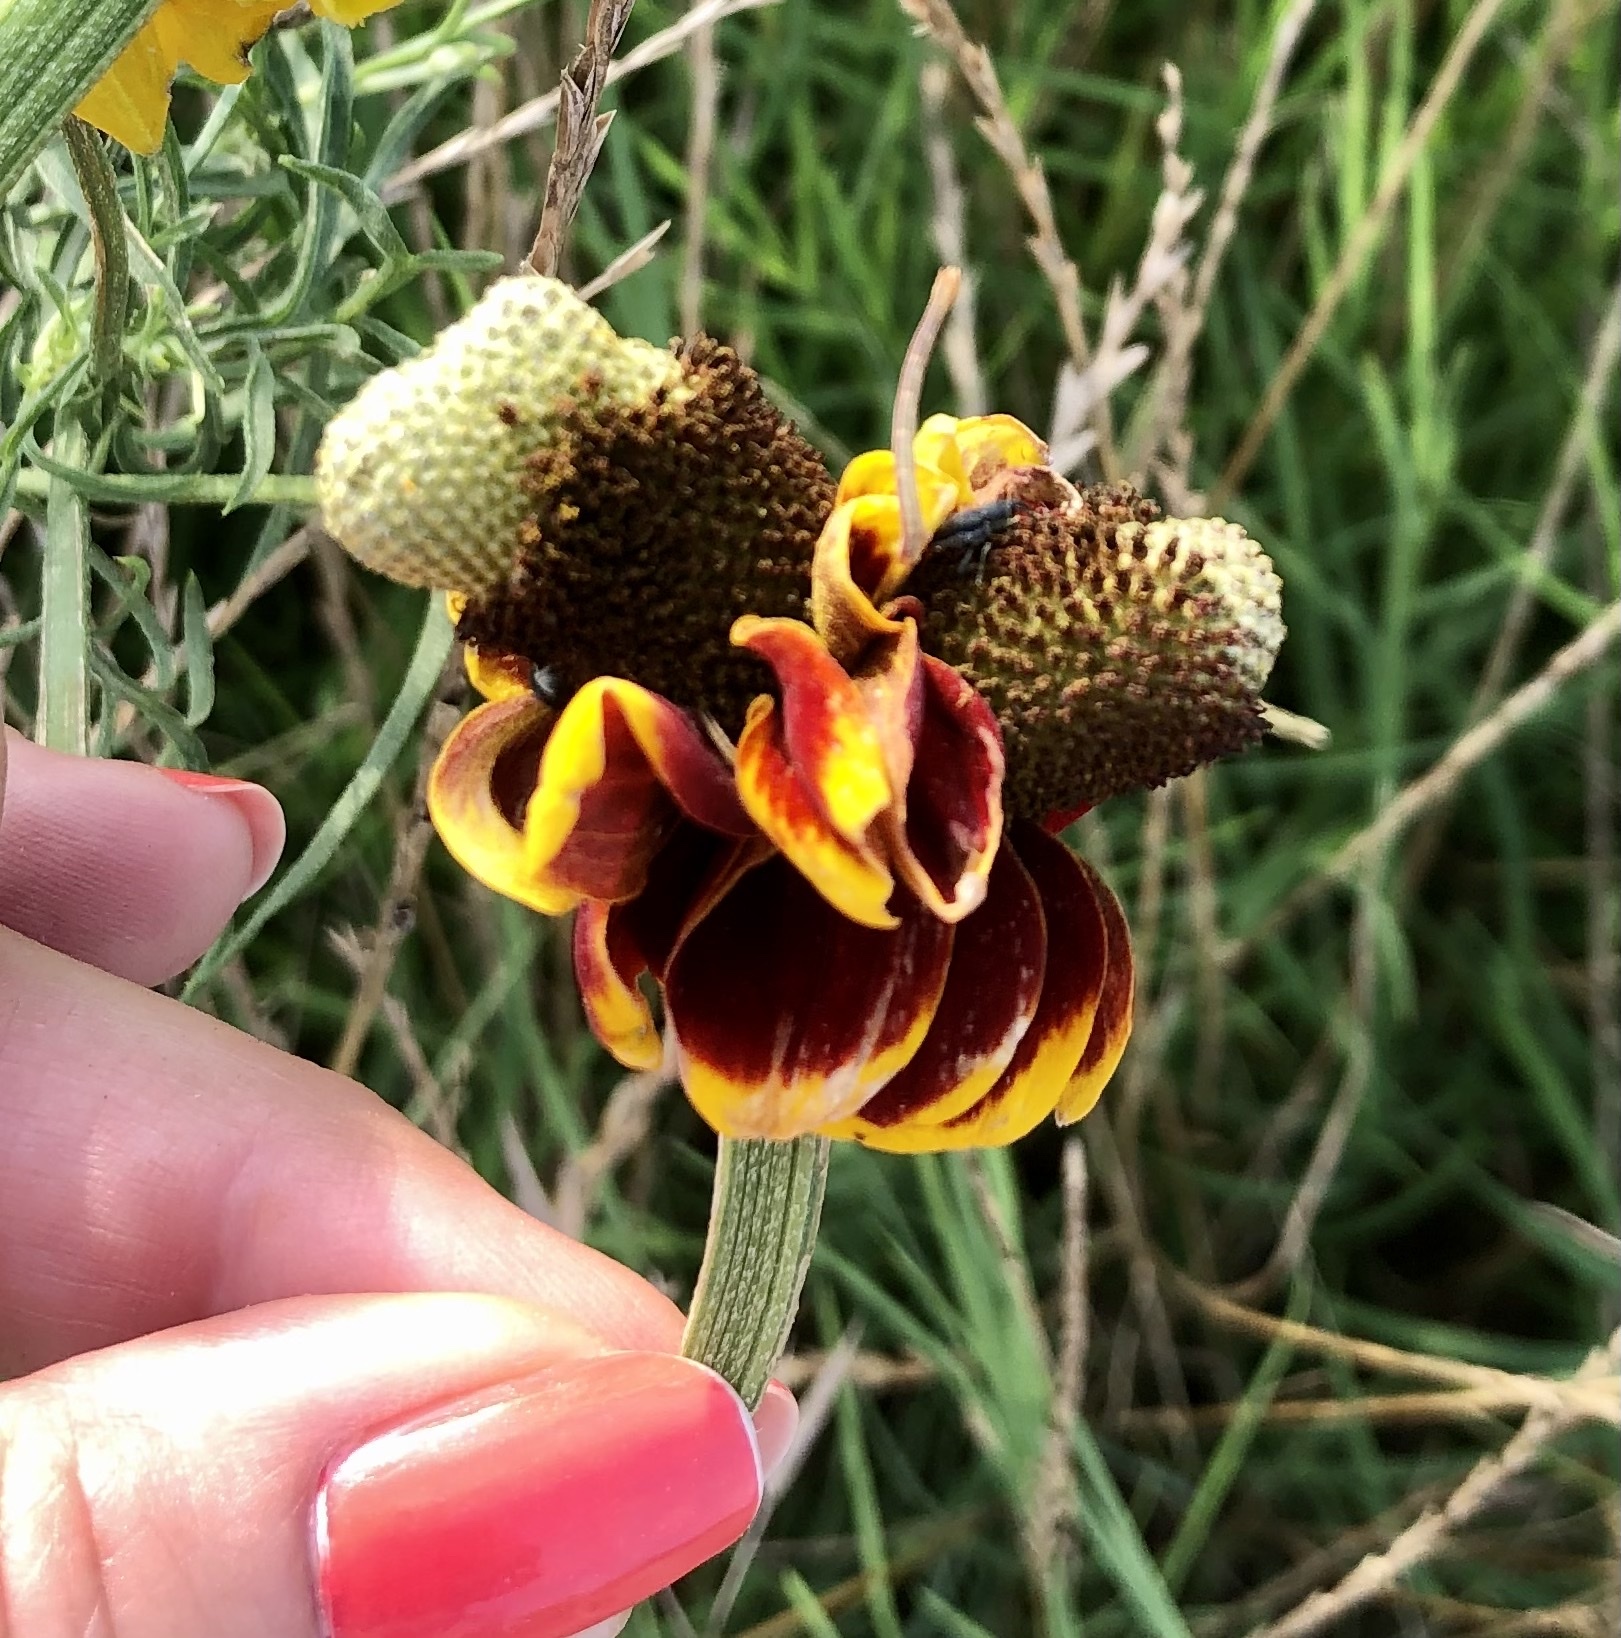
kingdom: Plantae
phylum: Tracheophyta
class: Magnoliopsida
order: Asterales
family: Asteraceae
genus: Ratibida
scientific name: Ratibida columnifera
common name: Prairie coneflower
